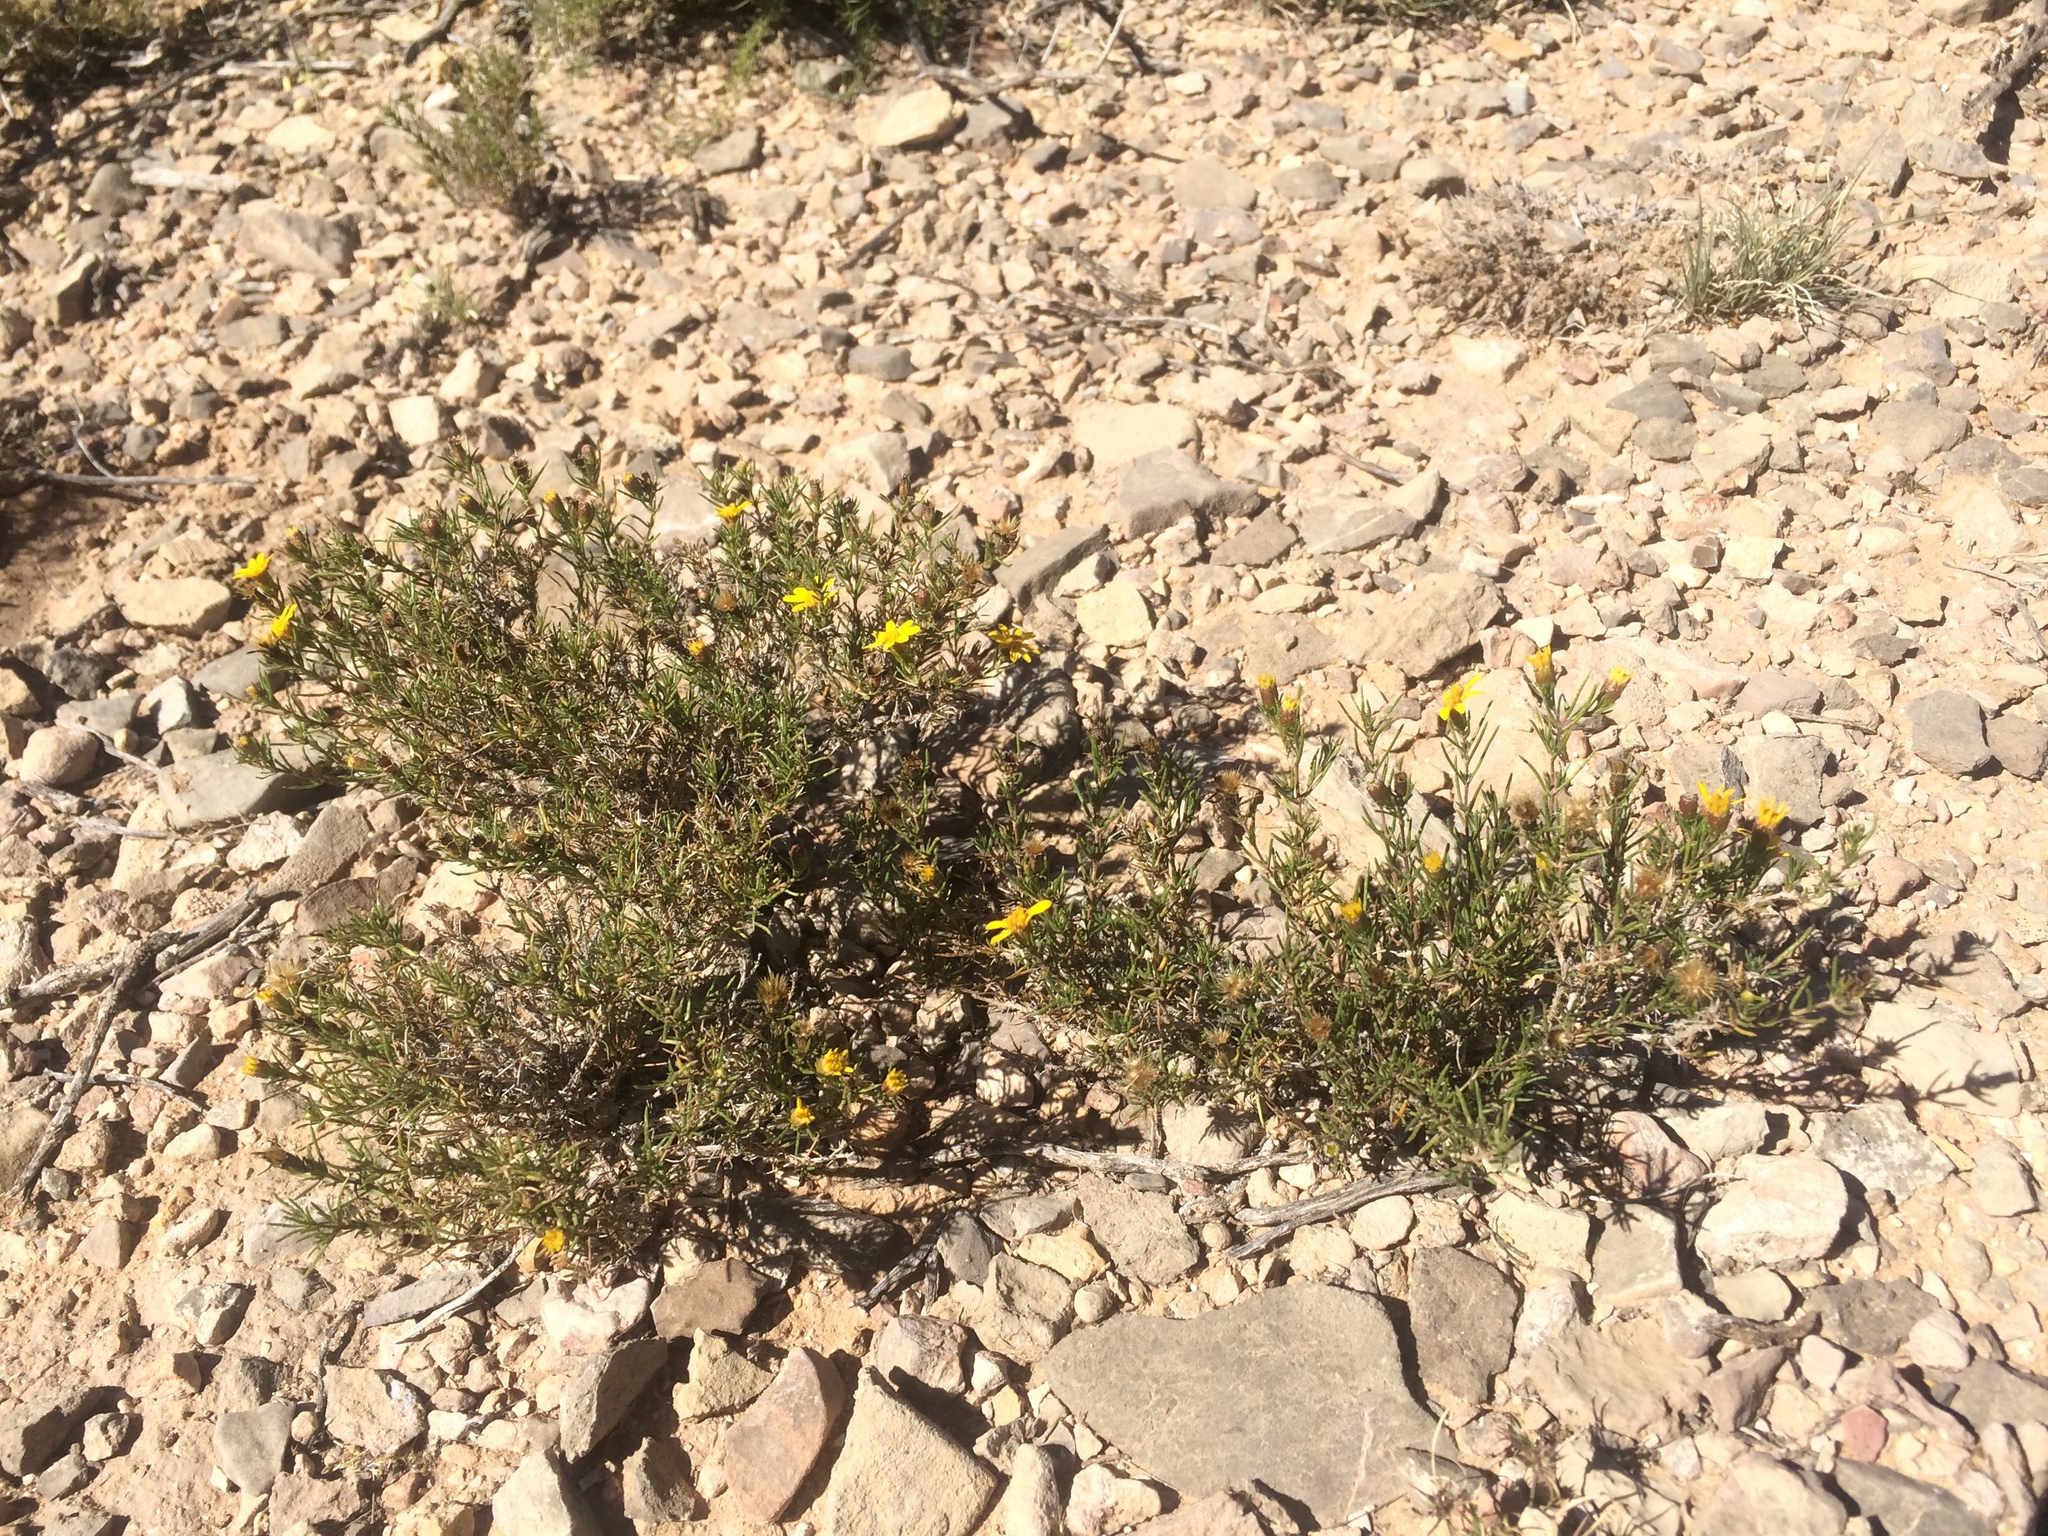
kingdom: Plantae
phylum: Tracheophyta
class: Magnoliopsida
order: Asterales
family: Asteraceae
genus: Thymophylla
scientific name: Thymophylla acerosa
